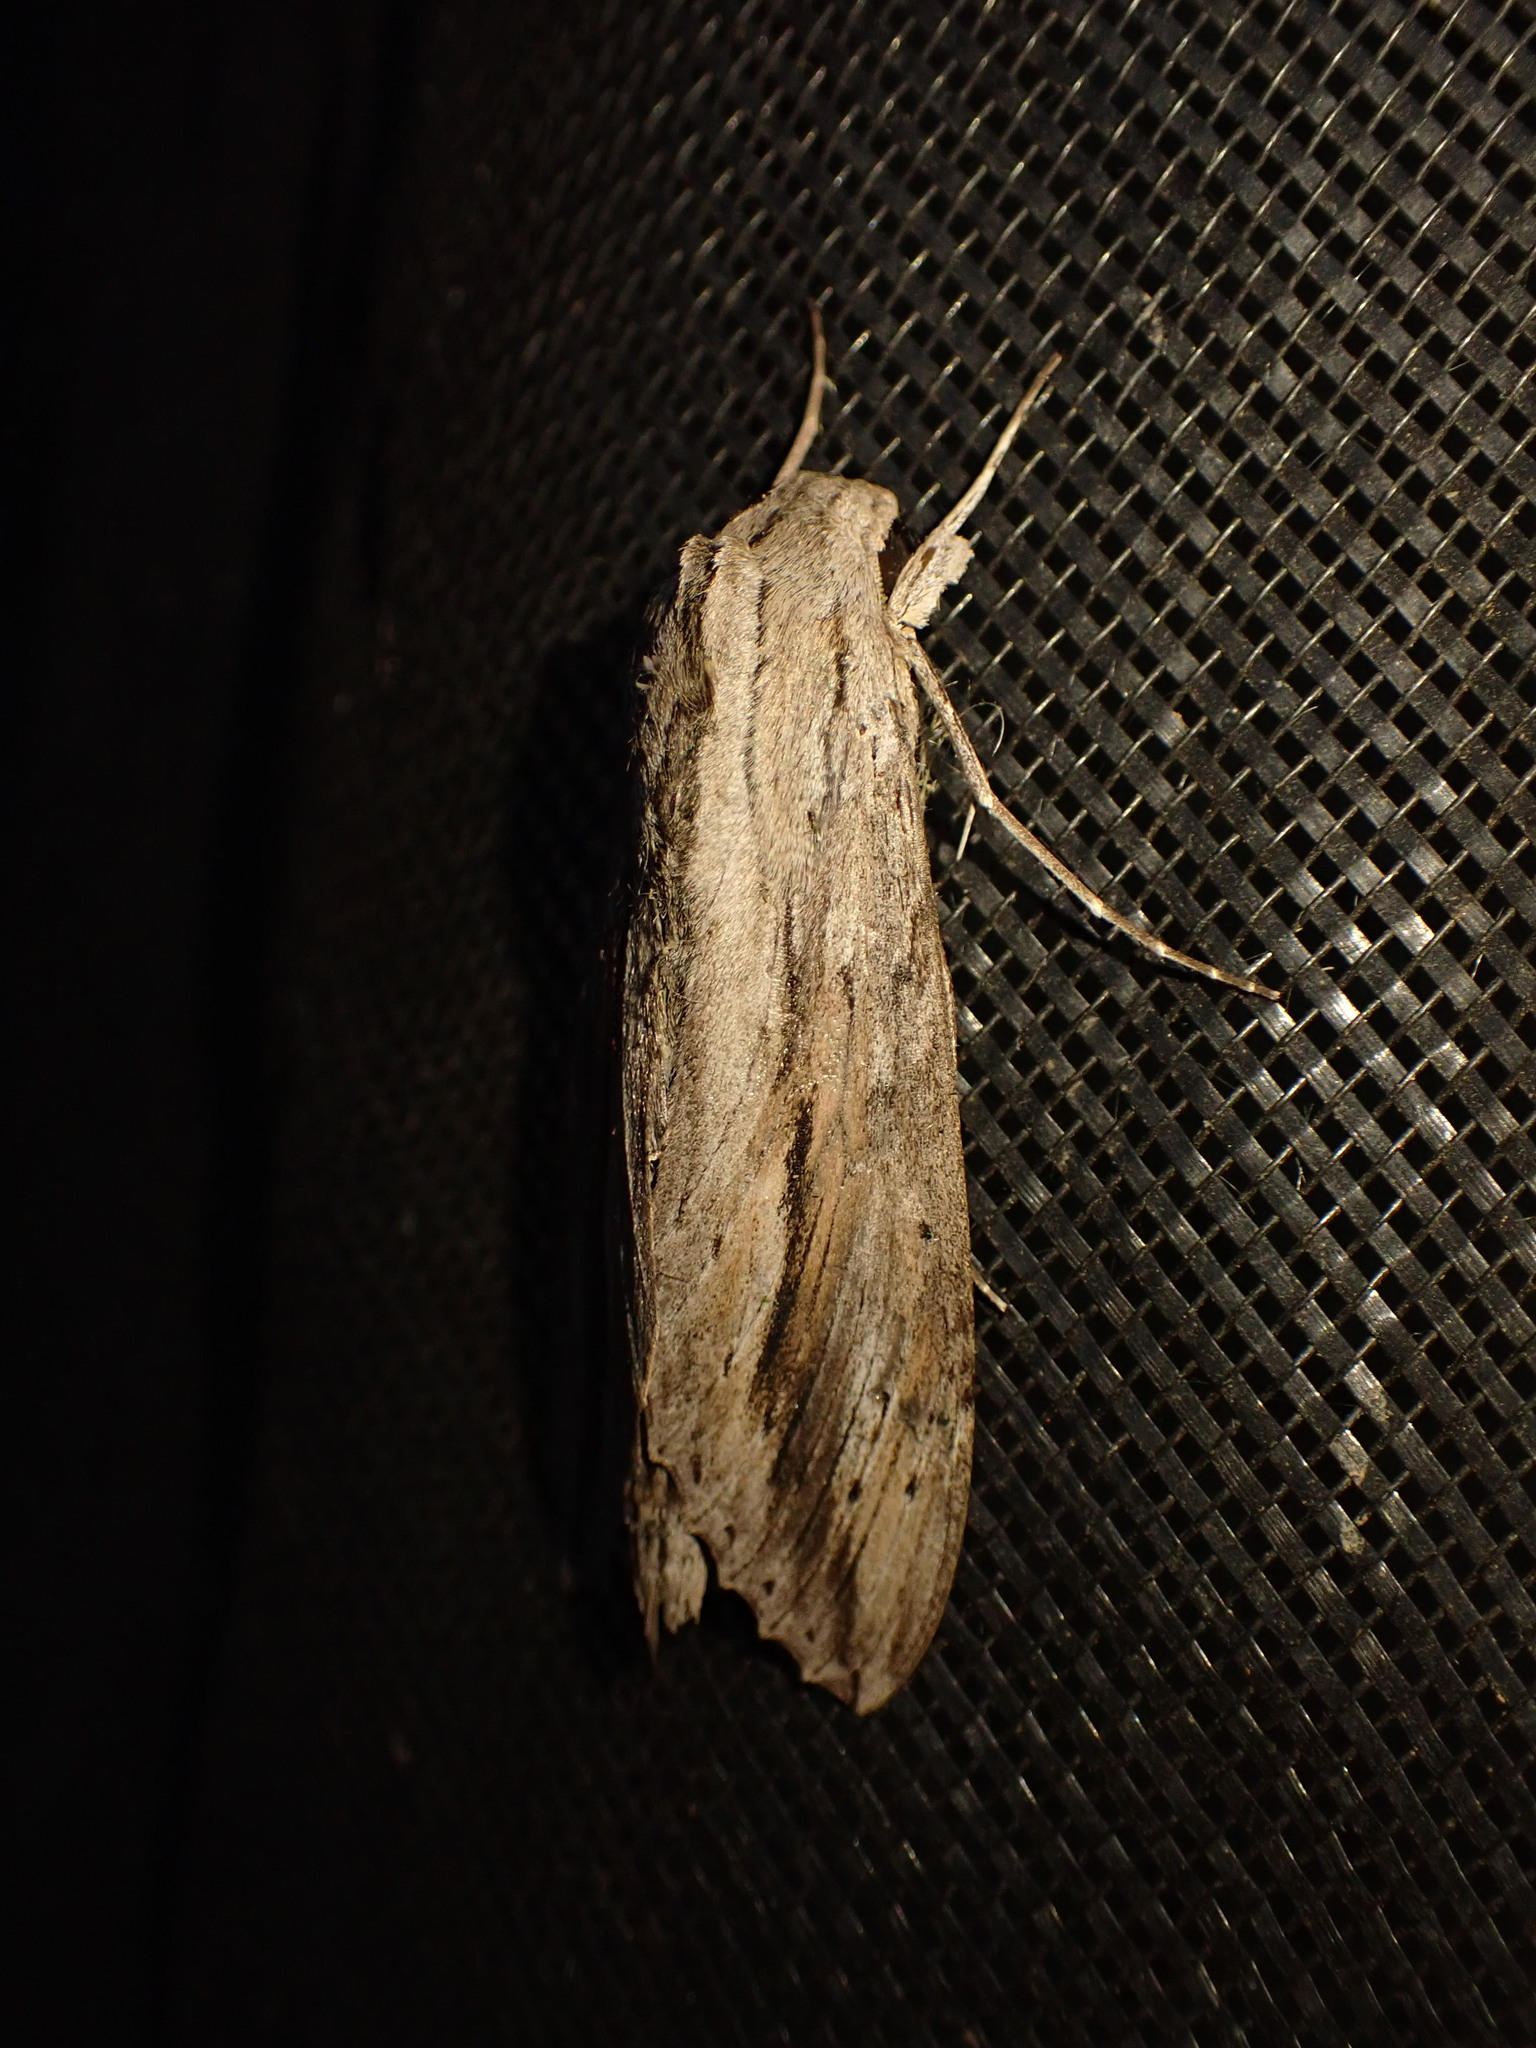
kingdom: Animalia
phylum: Arthropoda
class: Insecta
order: Lepidoptera
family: Sphingidae
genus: Erinnyis
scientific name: Erinnyis ello
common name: Ello sphinx
